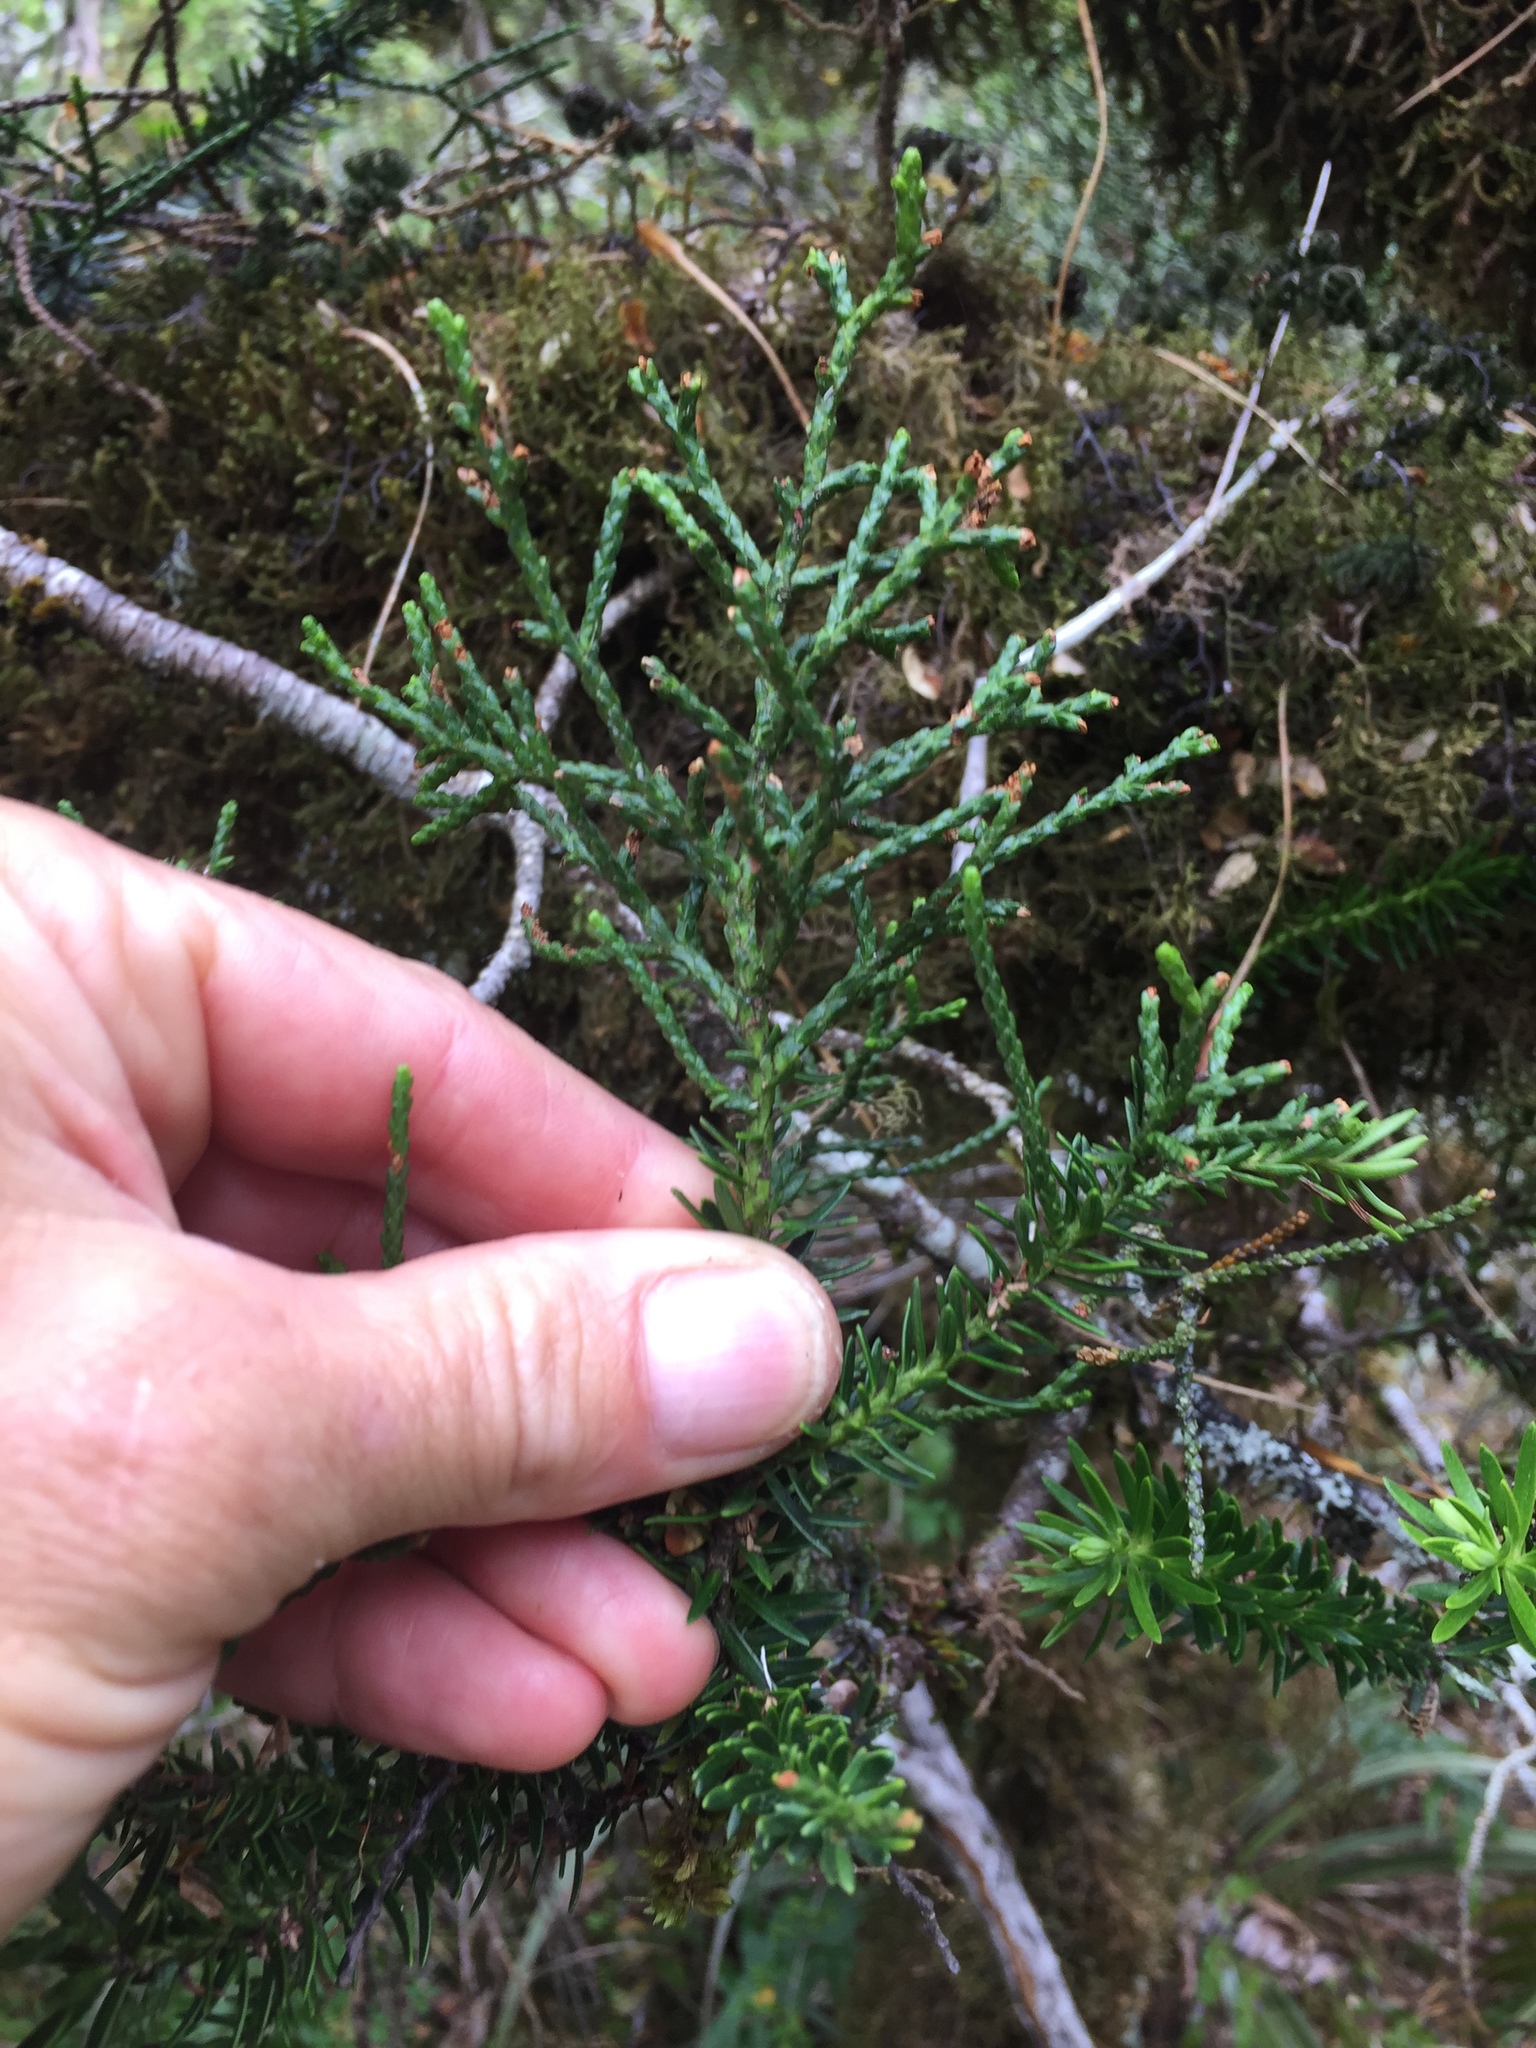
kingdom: Plantae
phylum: Tracheophyta
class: Pinopsida
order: Pinales
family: Podocarpaceae
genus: Halocarpus
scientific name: Halocarpus biformis
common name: Alpine tarwood
